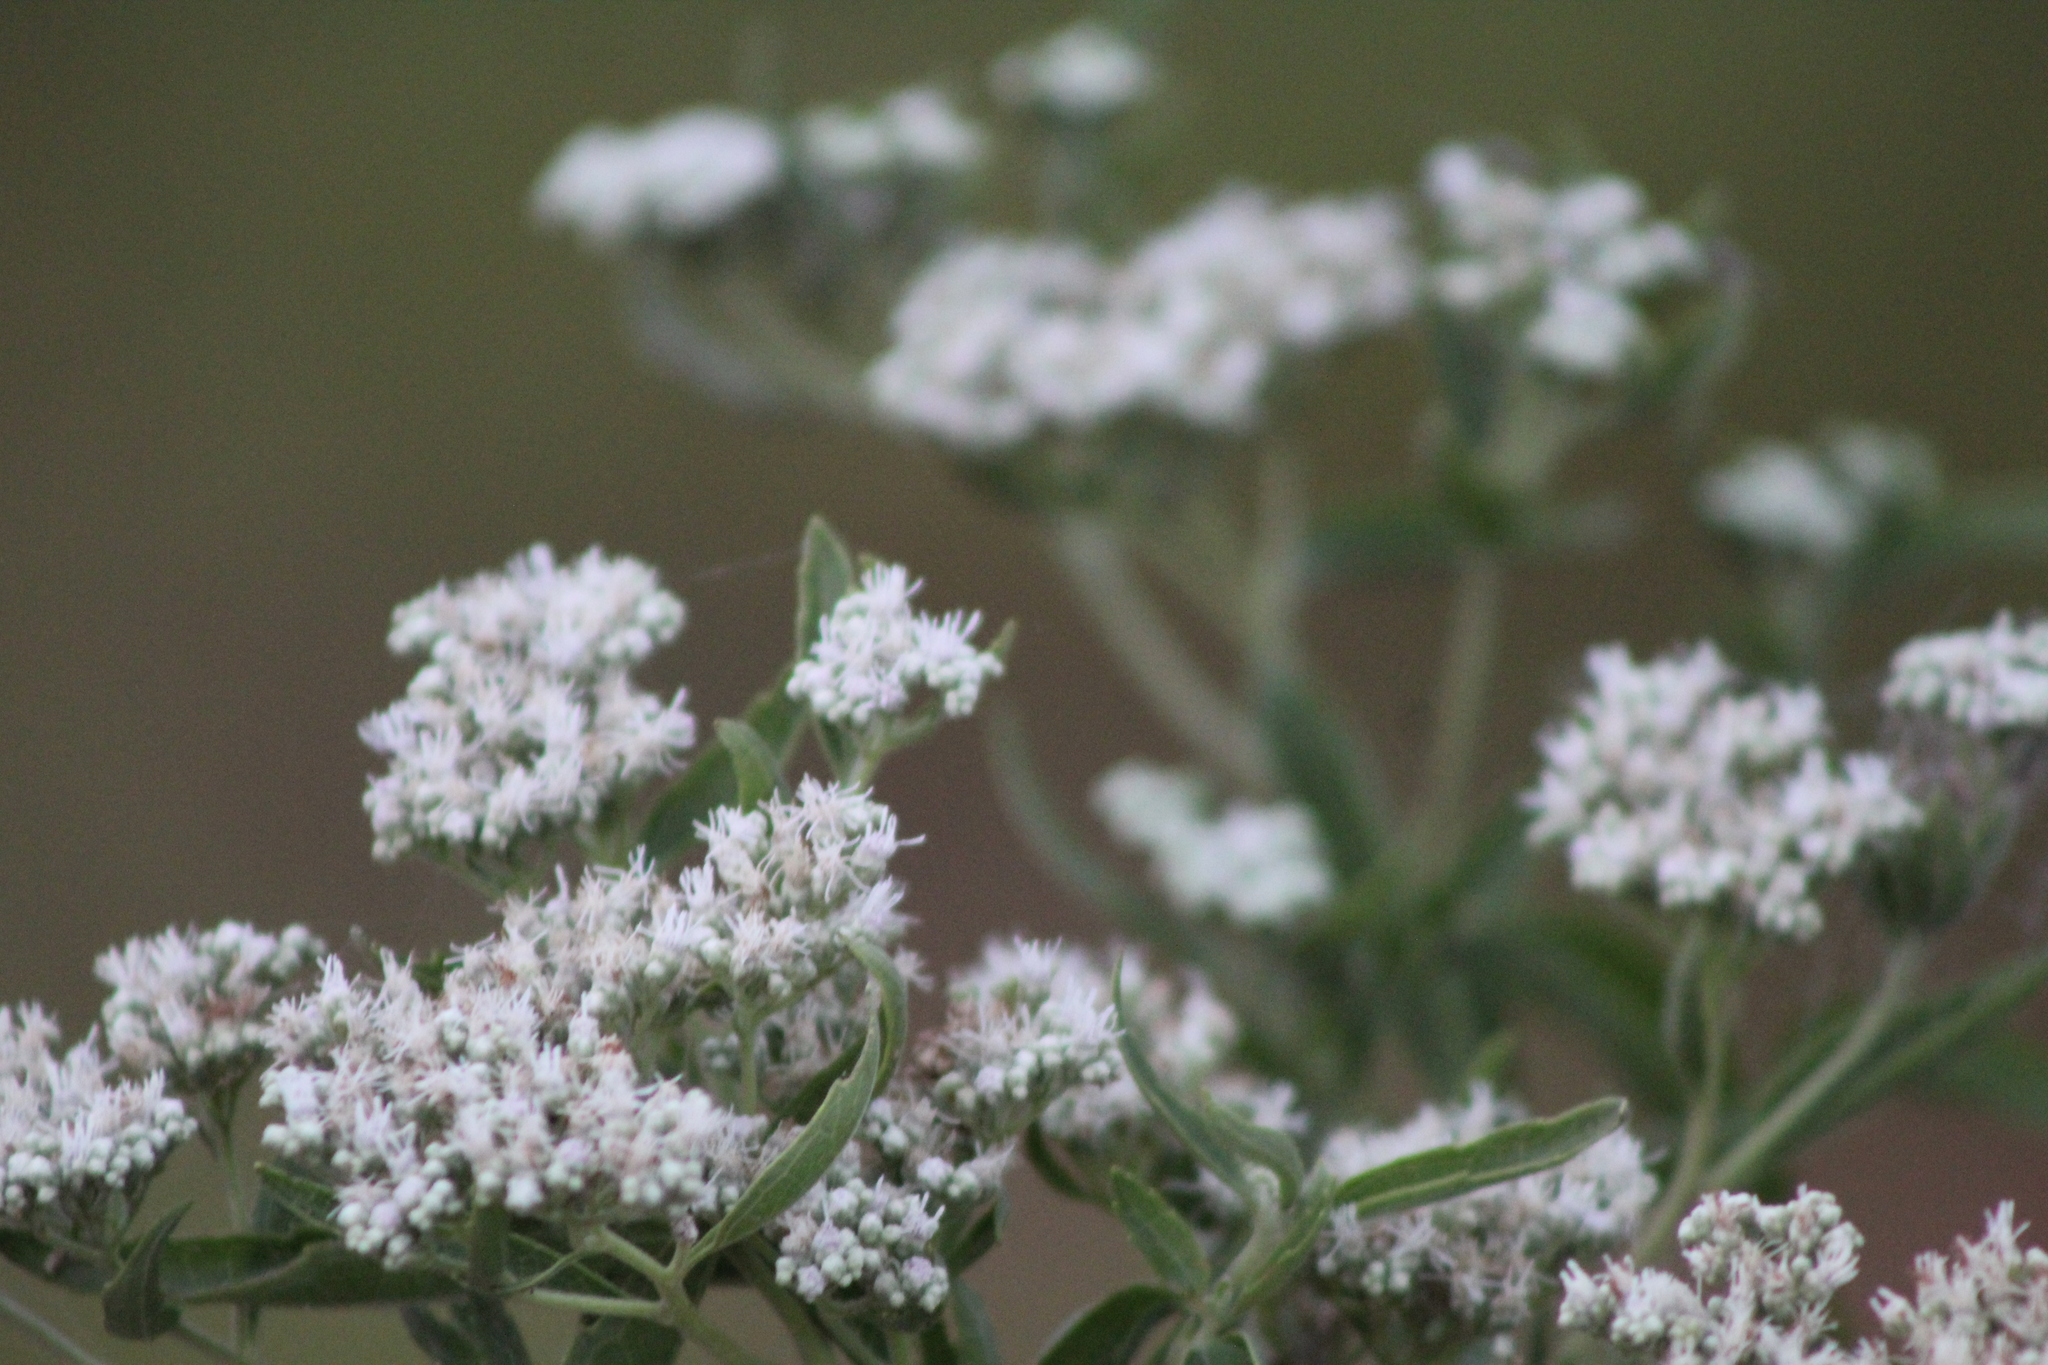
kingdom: Plantae
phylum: Tracheophyta
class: Magnoliopsida
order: Asterales
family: Asteraceae
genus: Eupatorium
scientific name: Eupatorium serotinum
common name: Late boneset
